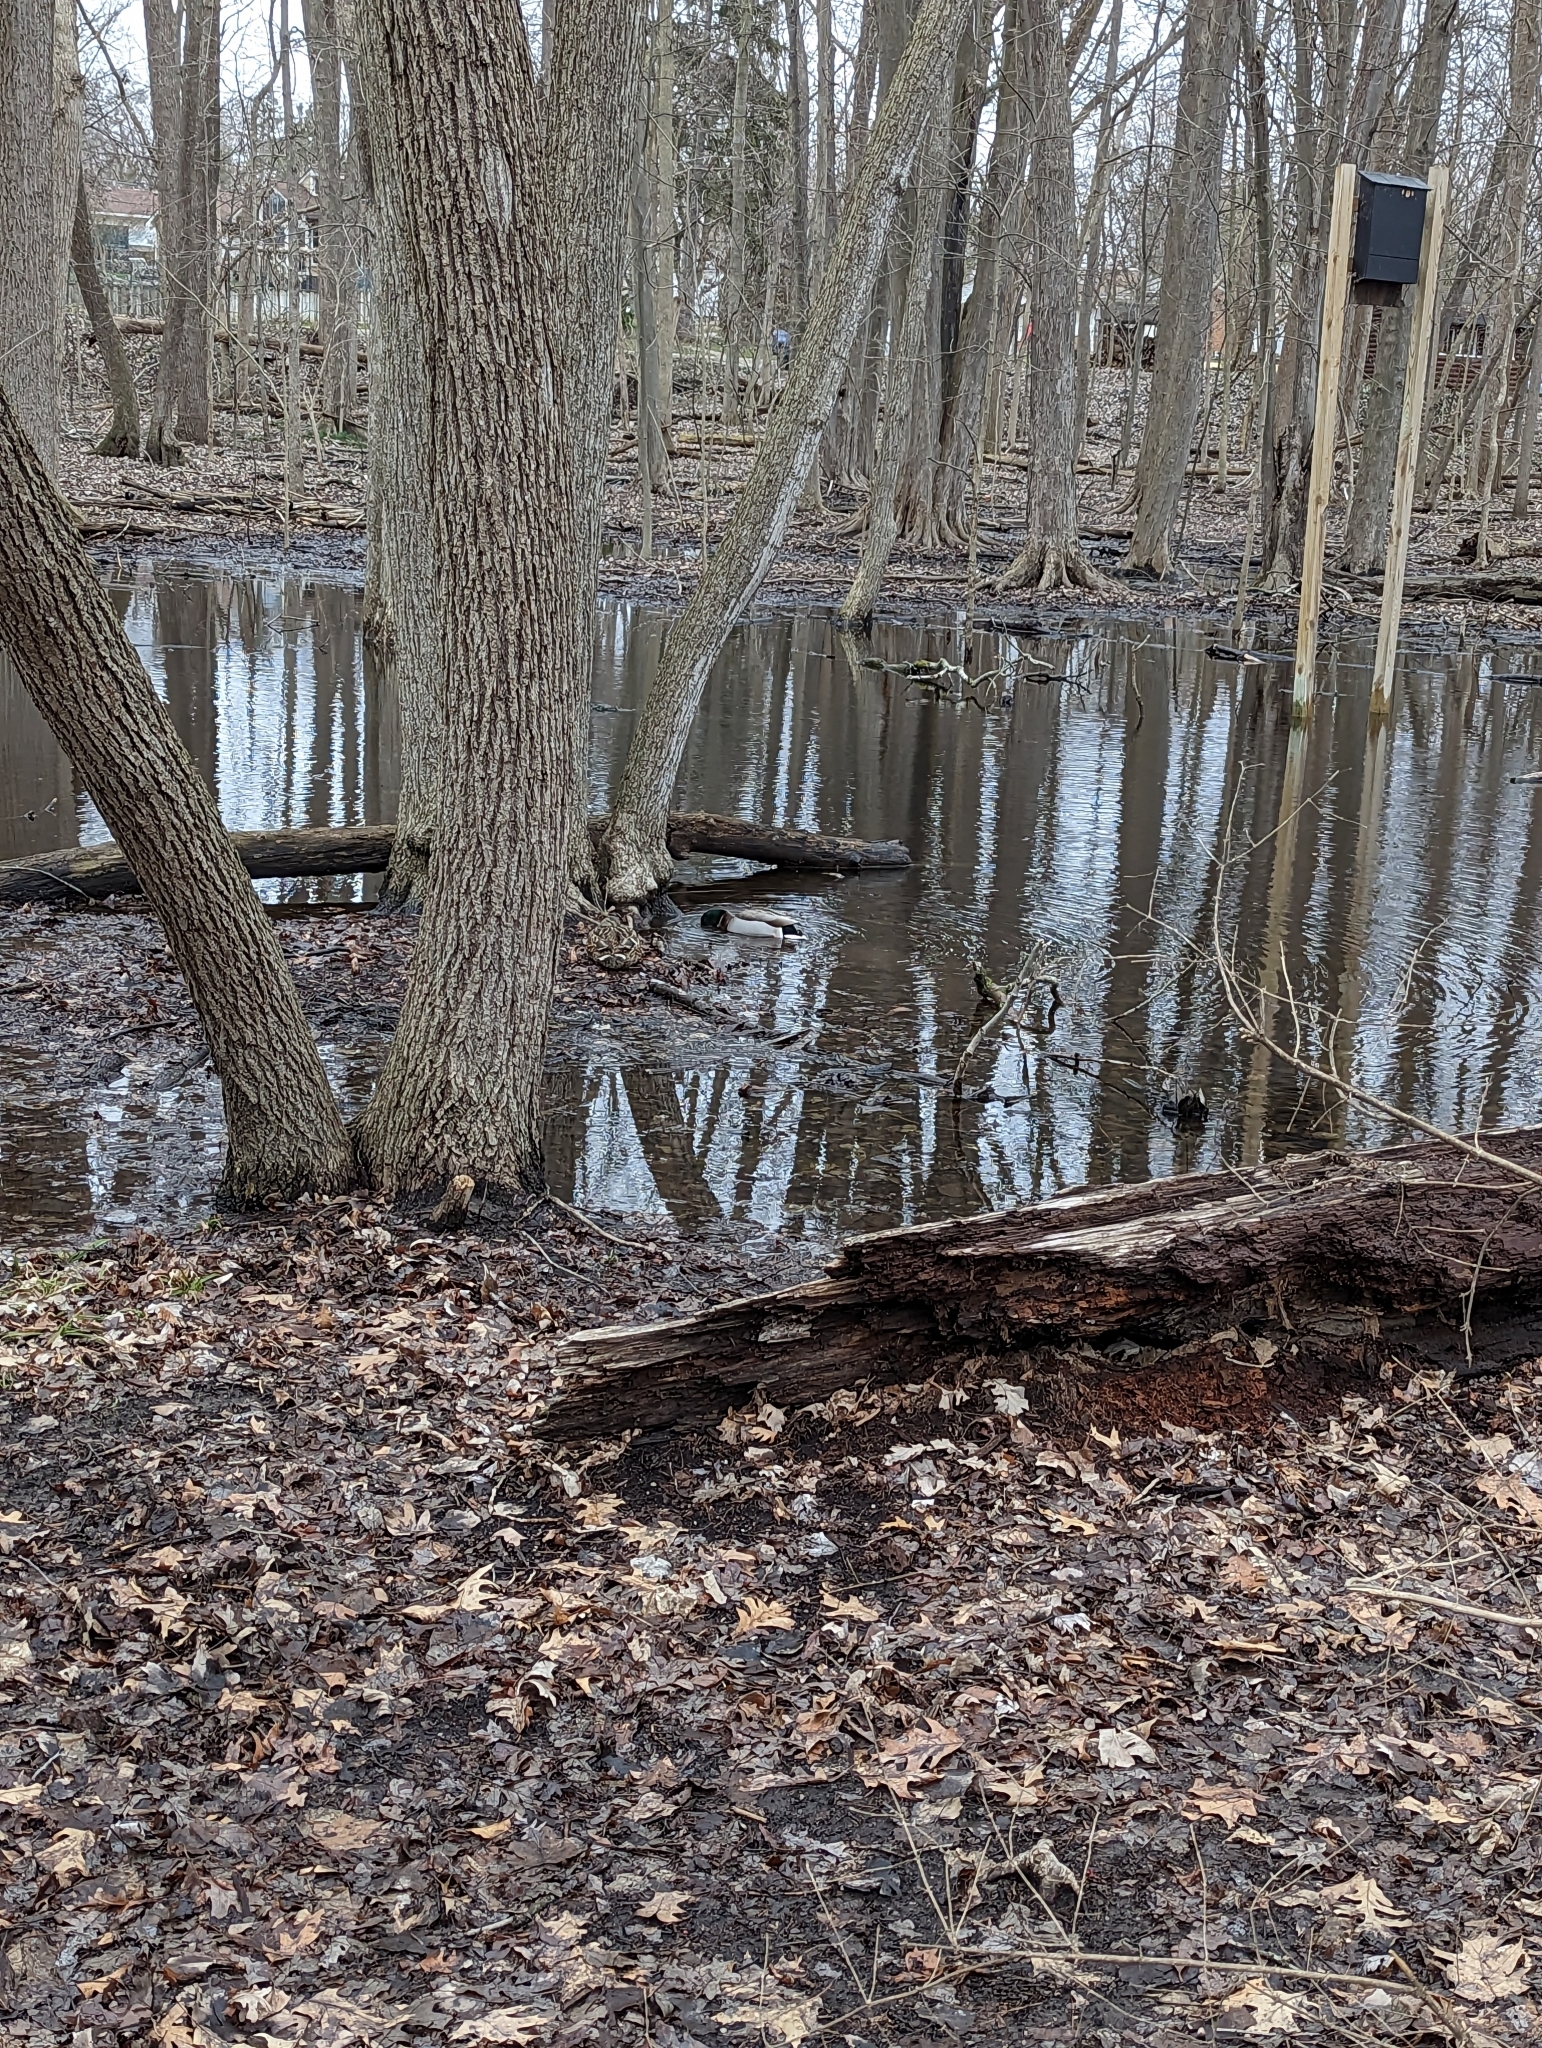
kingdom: Animalia
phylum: Chordata
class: Aves
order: Anseriformes
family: Anatidae
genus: Anas
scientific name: Anas platyrhynchos
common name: Mallard
